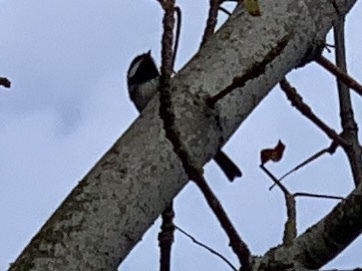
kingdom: Animalia
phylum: Chordata
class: Aves
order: Passeriformes
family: Paridae
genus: Poecile
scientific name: Poecile atricapillus
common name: Black-capped chickadee
